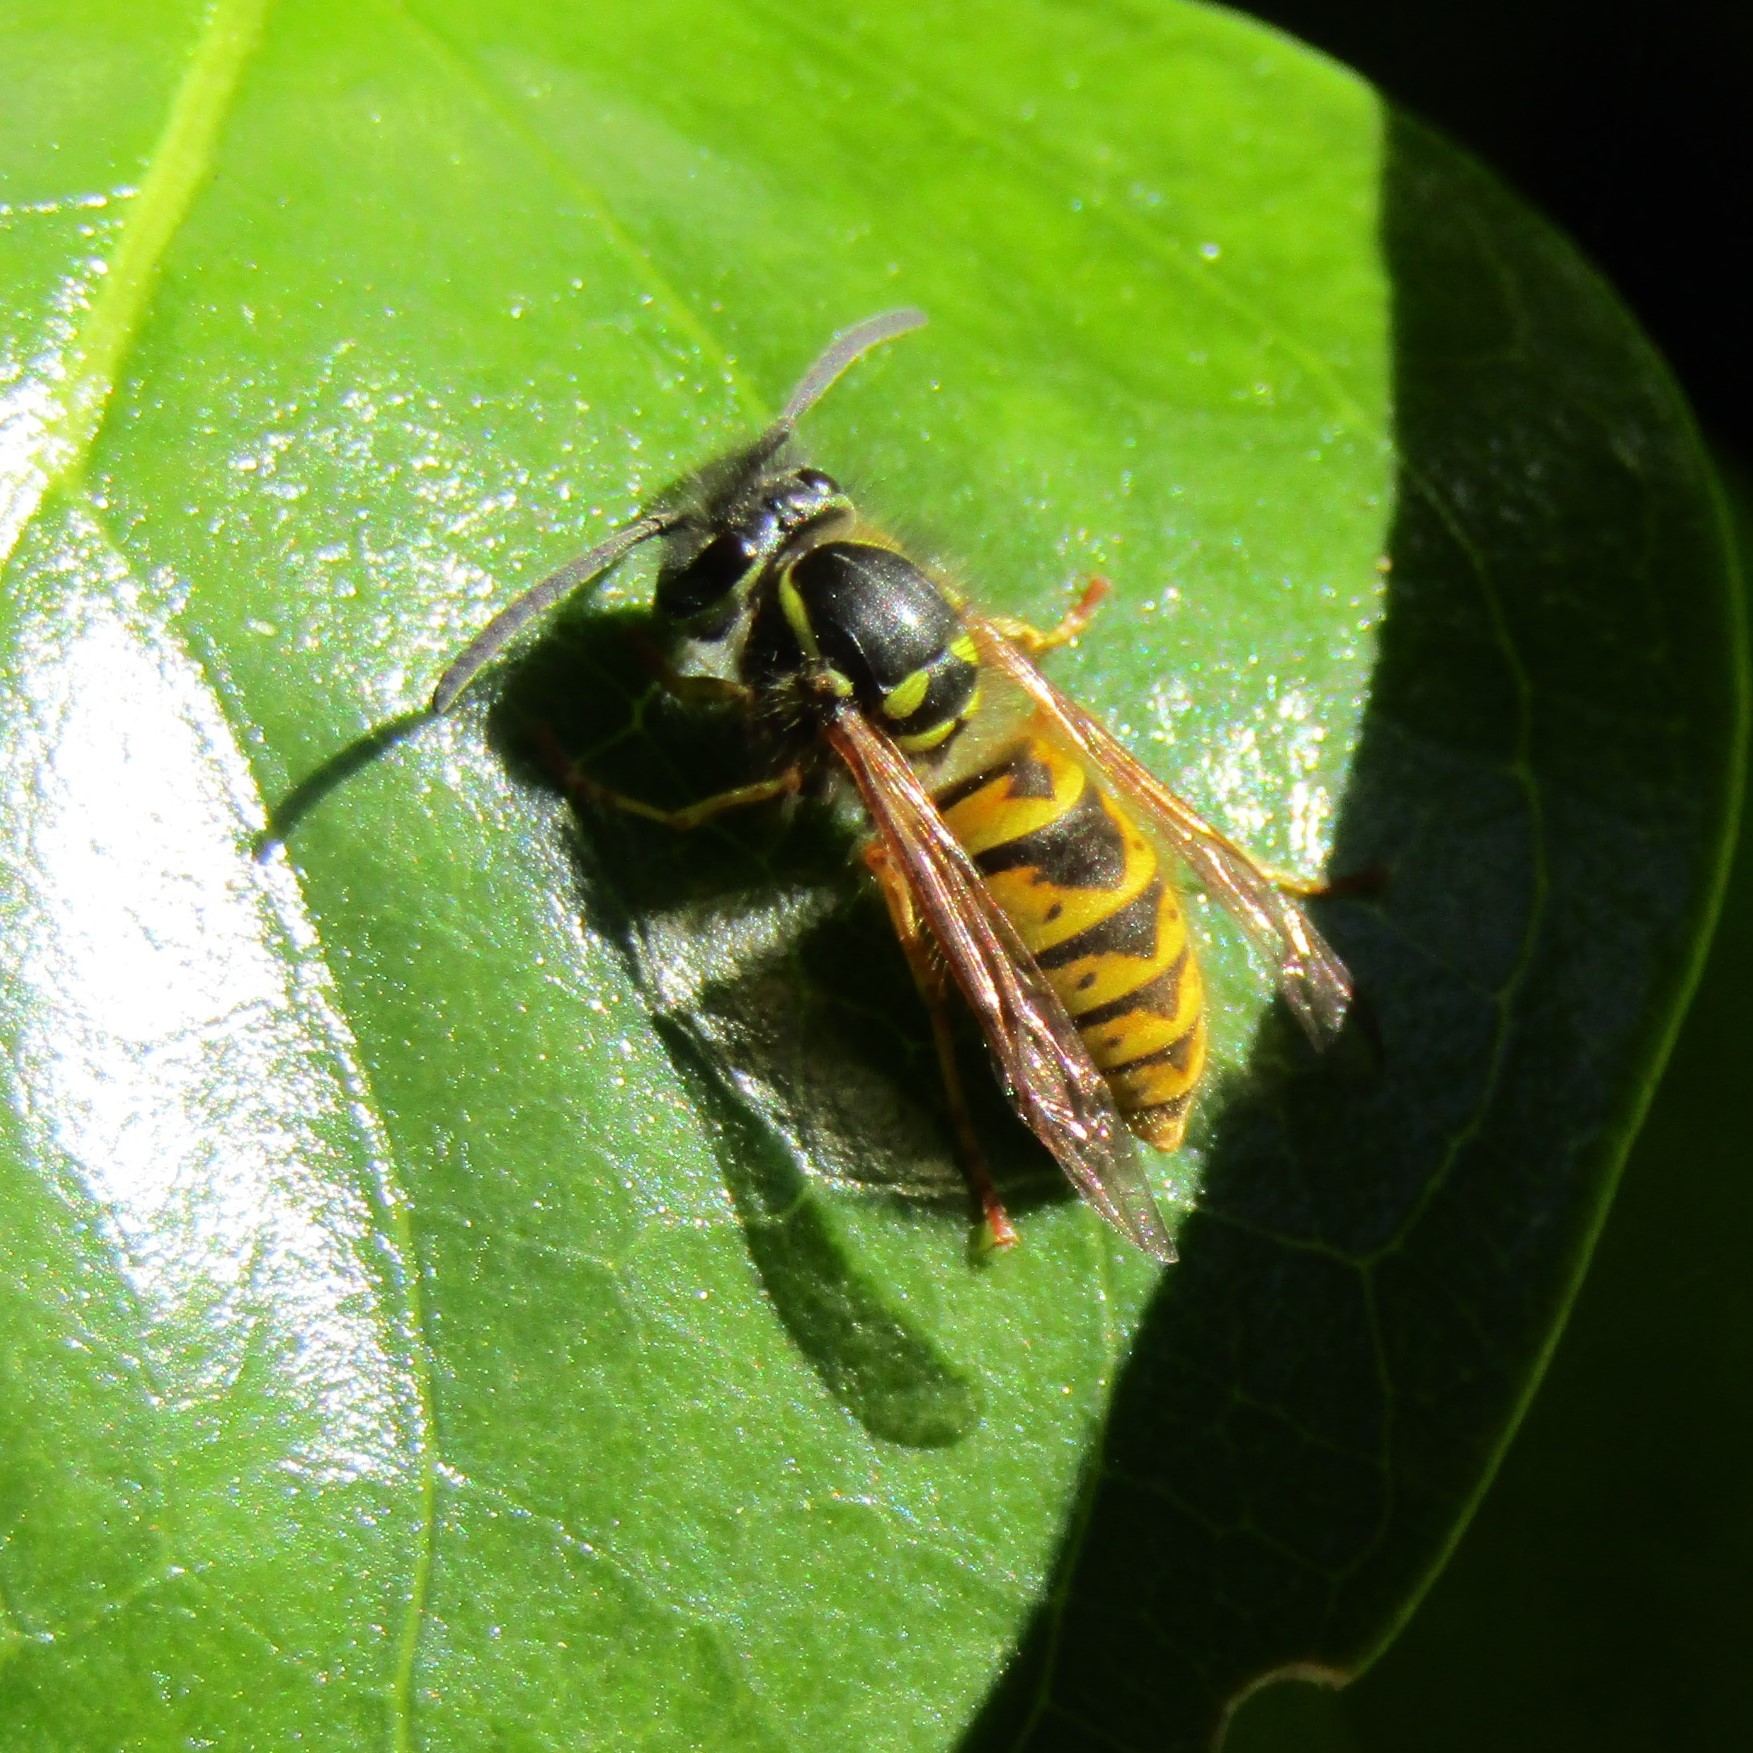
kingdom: Animalia
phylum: Arthropoda
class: Insecta
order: Hymenoptera
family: Vespidae
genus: Vespula
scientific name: Vespula vulgaris
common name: Common wasp
